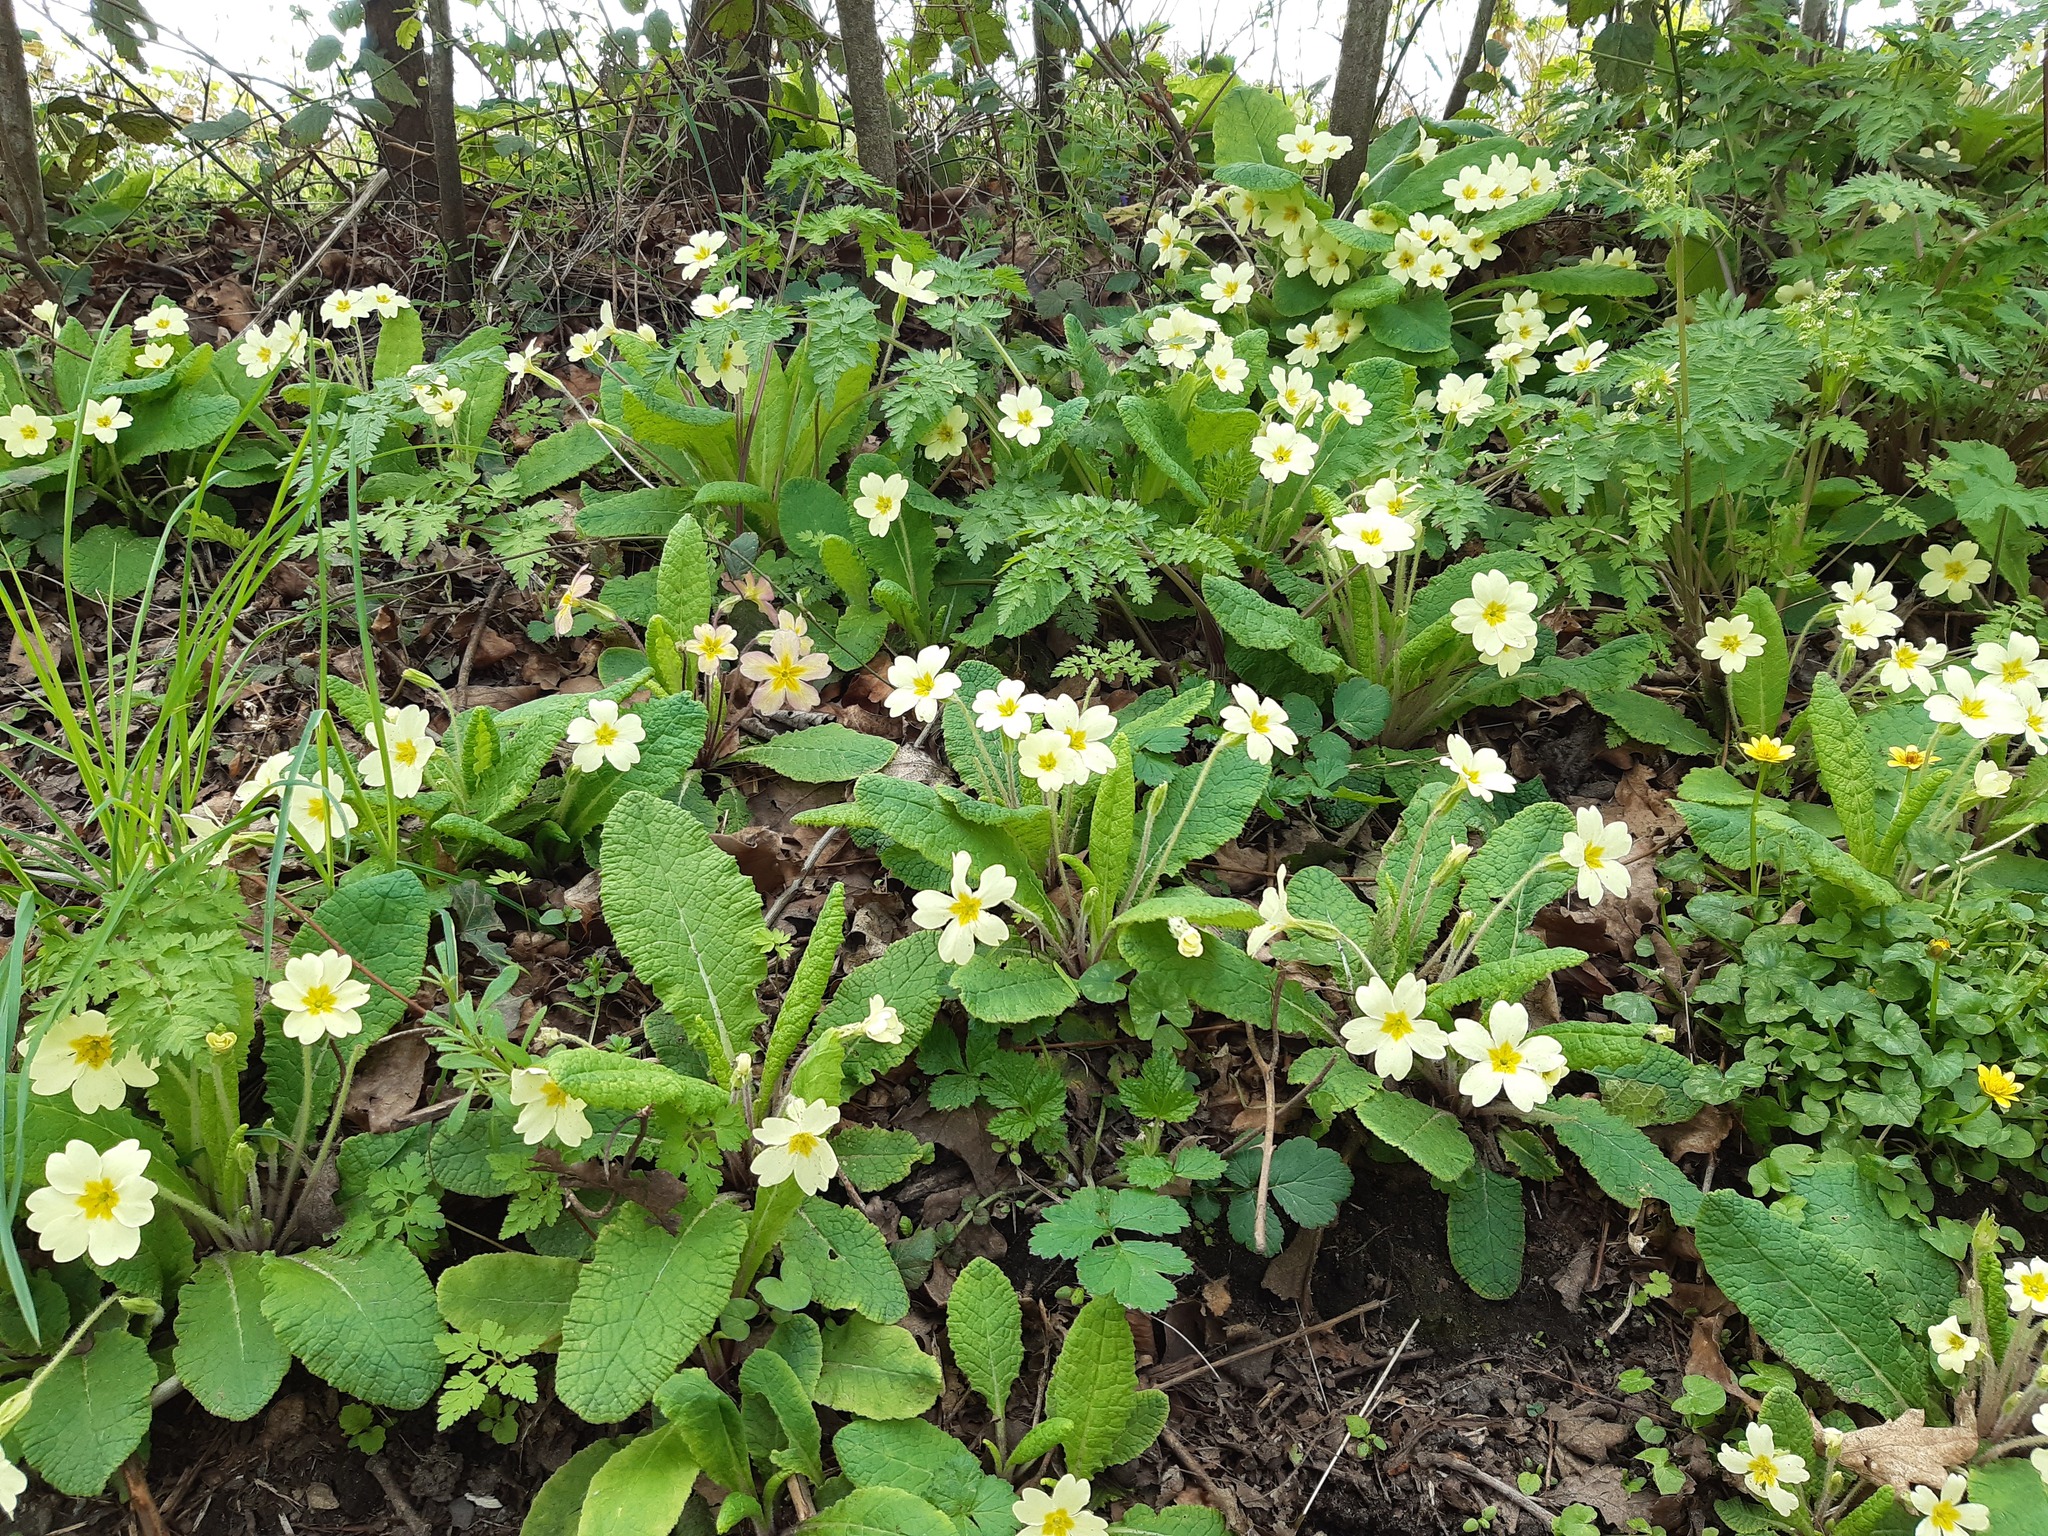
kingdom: Plantae
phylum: Tracheophyta
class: Magnoliopsida
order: Ericales
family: Primulaceae
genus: Primula
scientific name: Primula vulgaris
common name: Primrose
